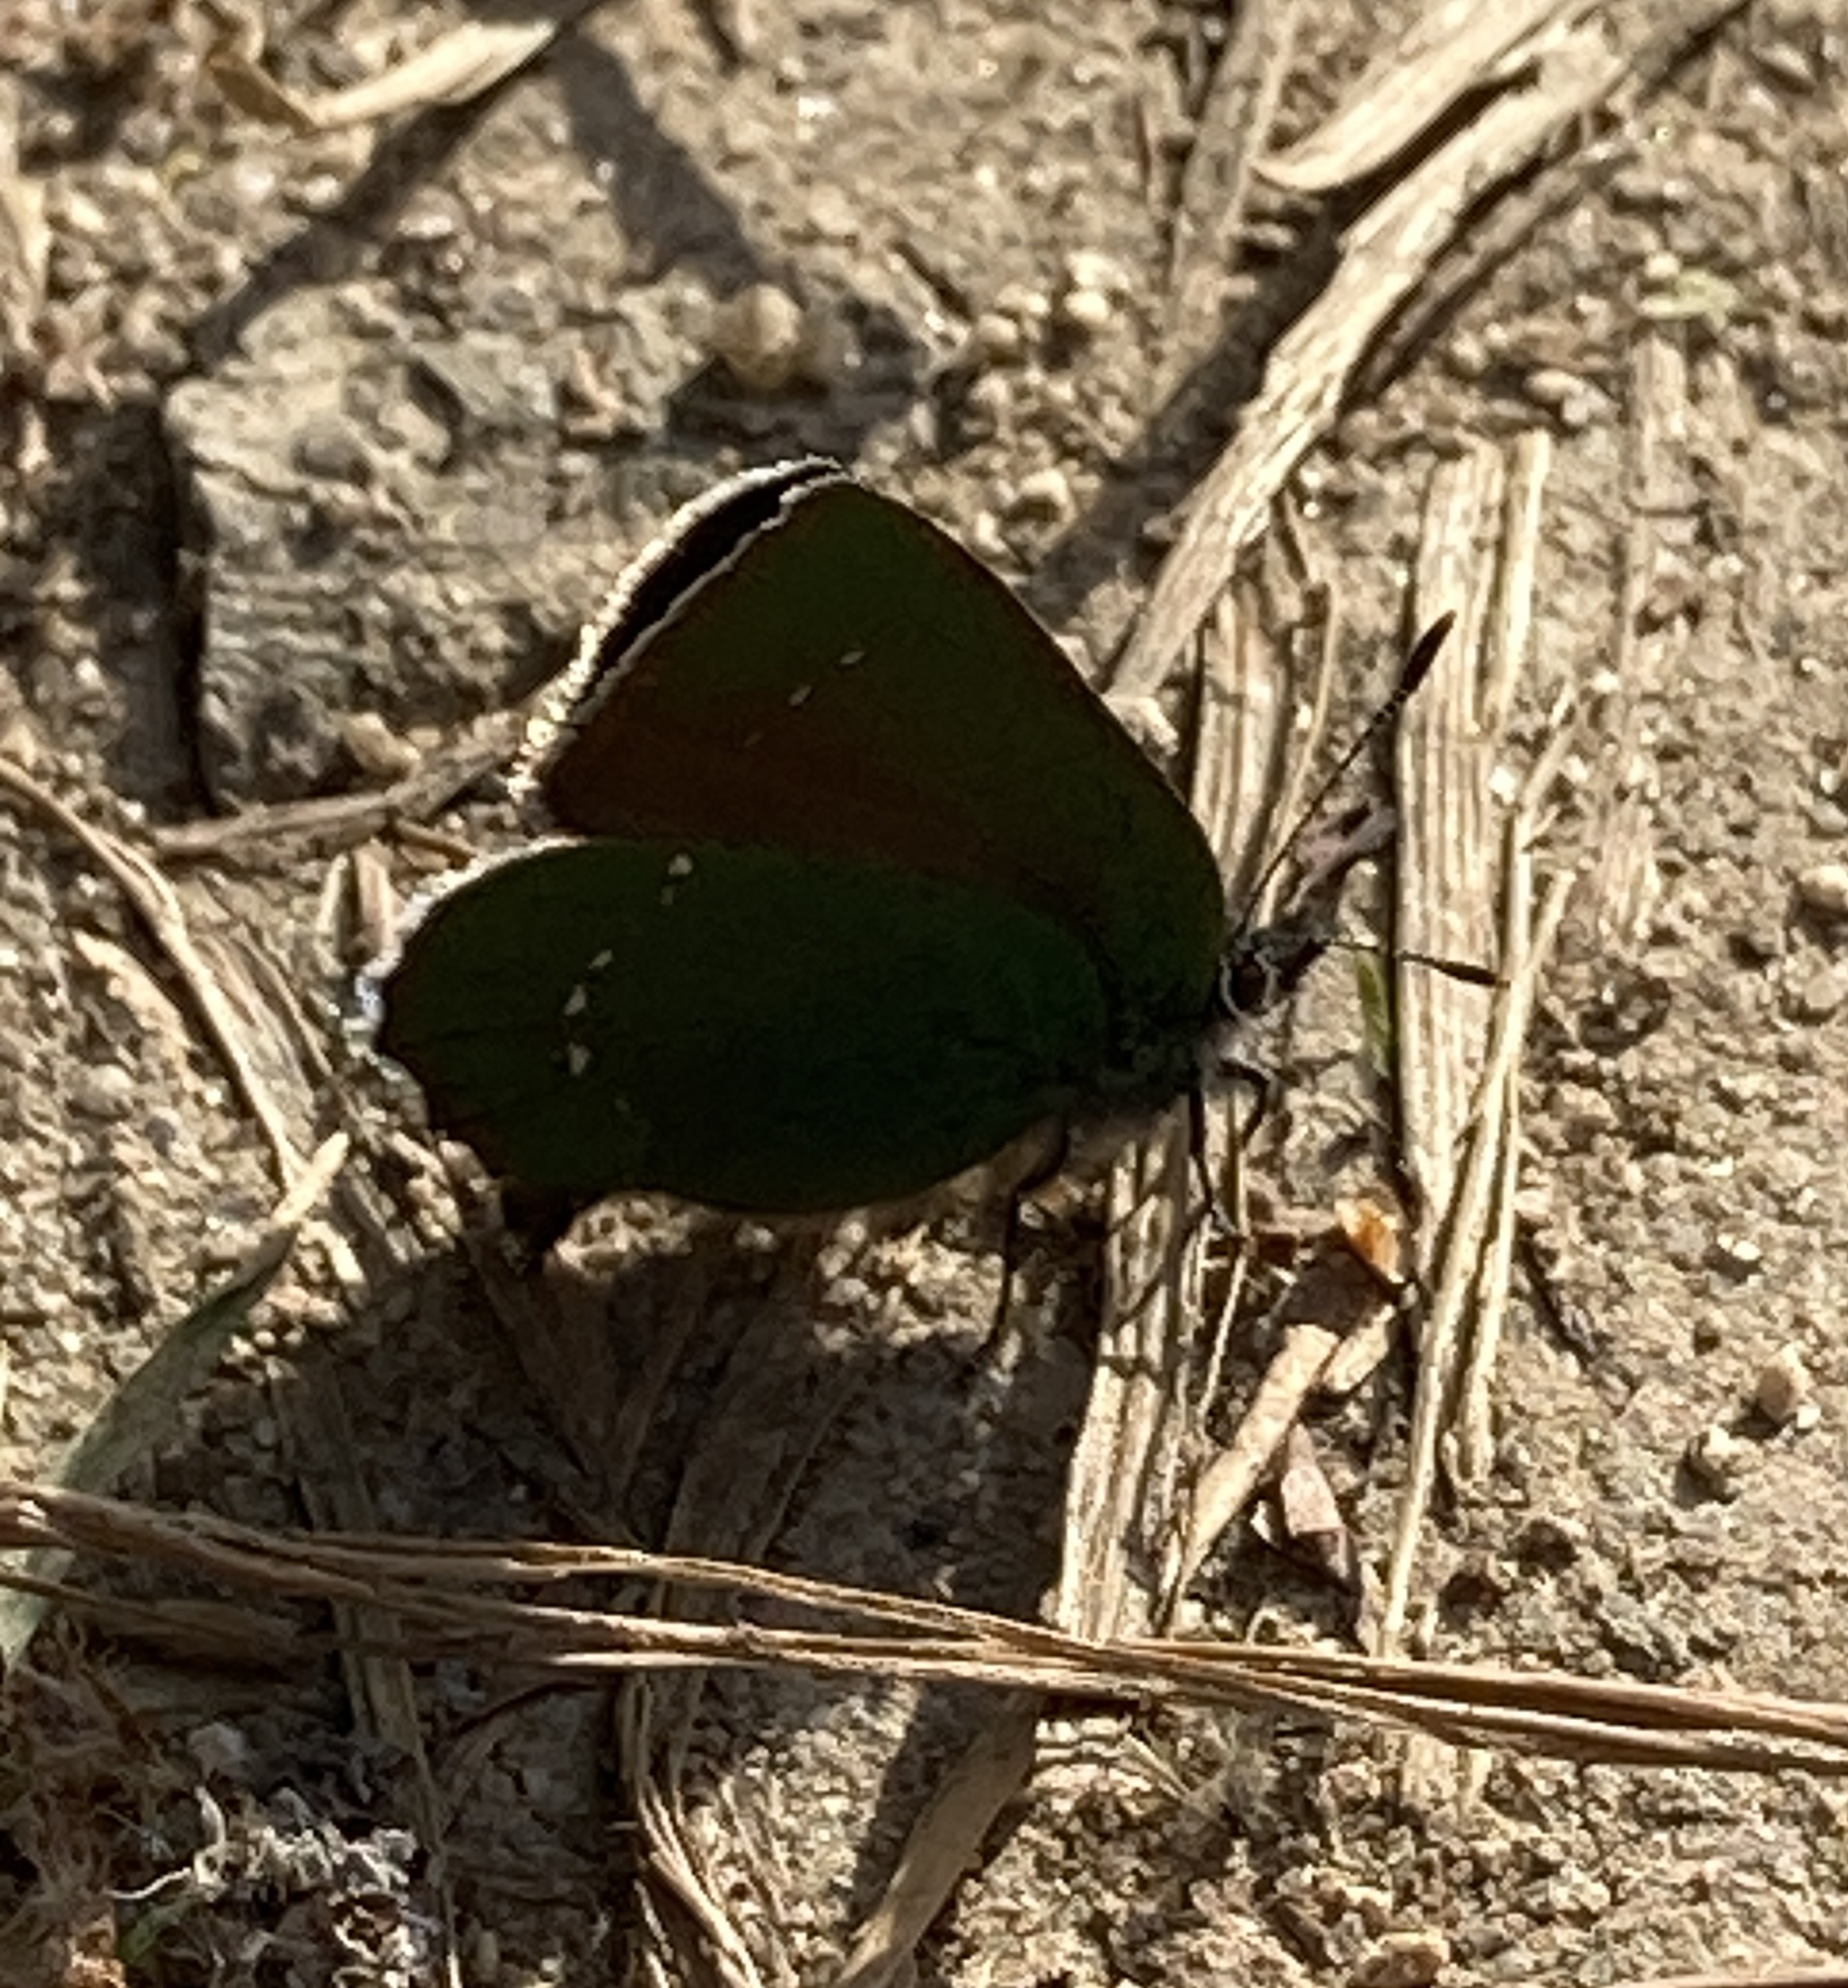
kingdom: Animalia
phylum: Arthropoda
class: Insecta
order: Lepidoptera
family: Lycaenidae
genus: Callophrys
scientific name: Callophrys rubi
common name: Green hairstreak
